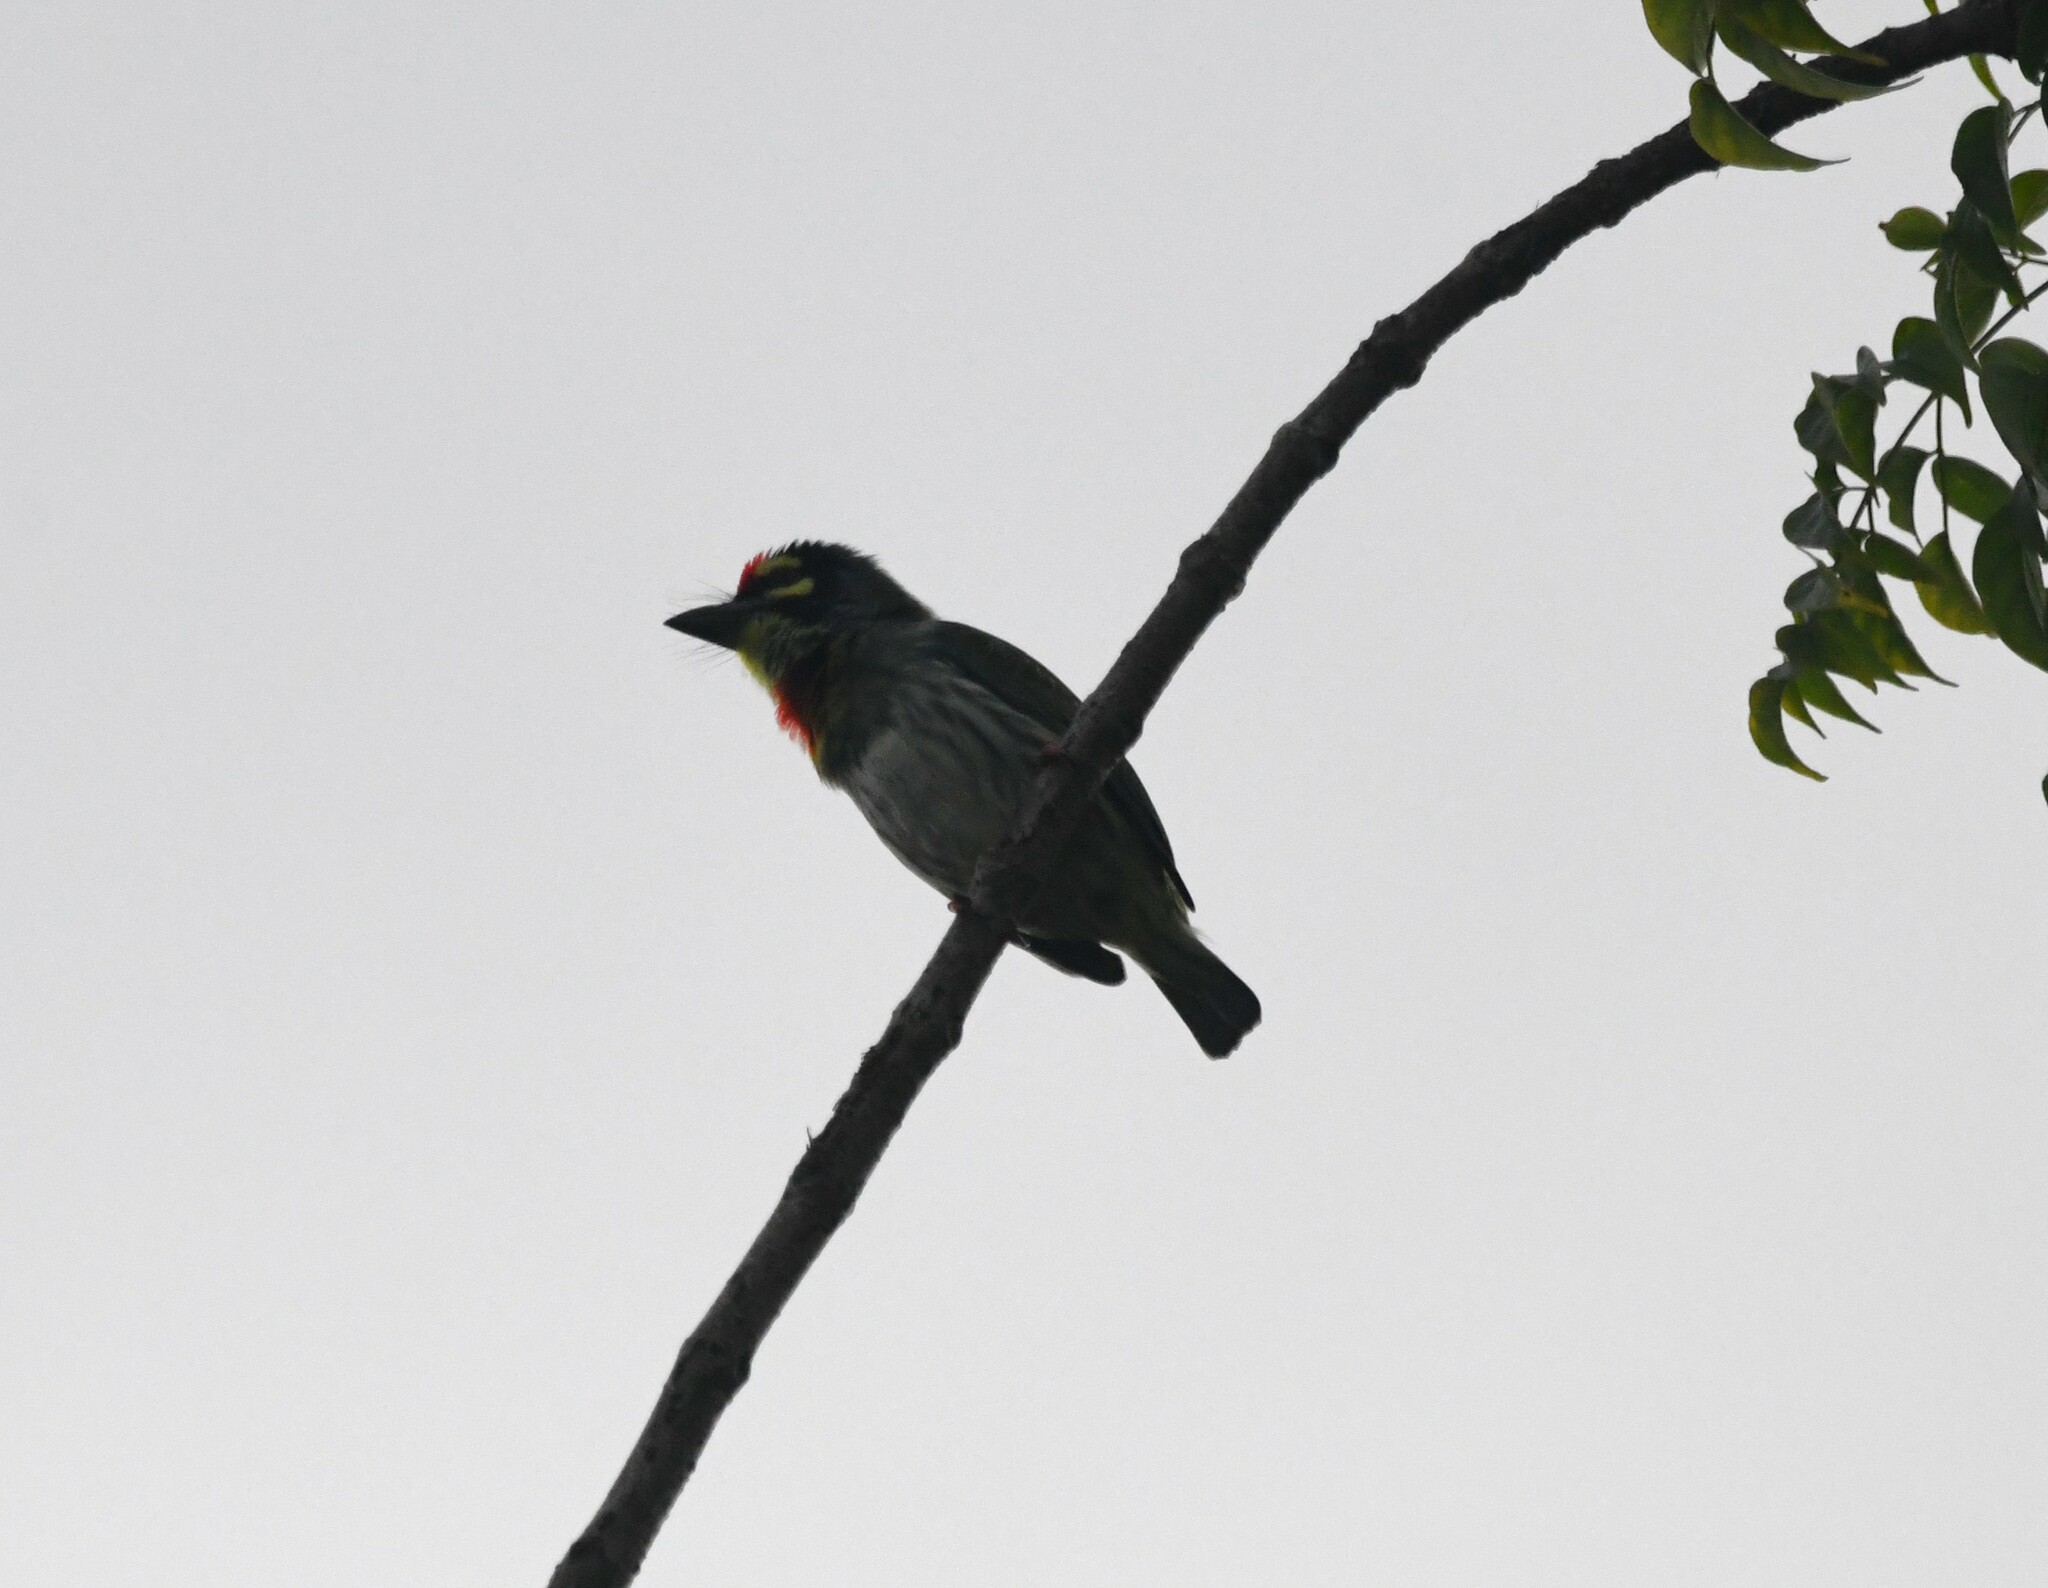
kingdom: Animalia
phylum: Chordata
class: Aves
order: Piciformes
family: Megalaimidae
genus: Psilopogon
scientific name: Psilopogon haemacephalus
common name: Coppersmith barbet
